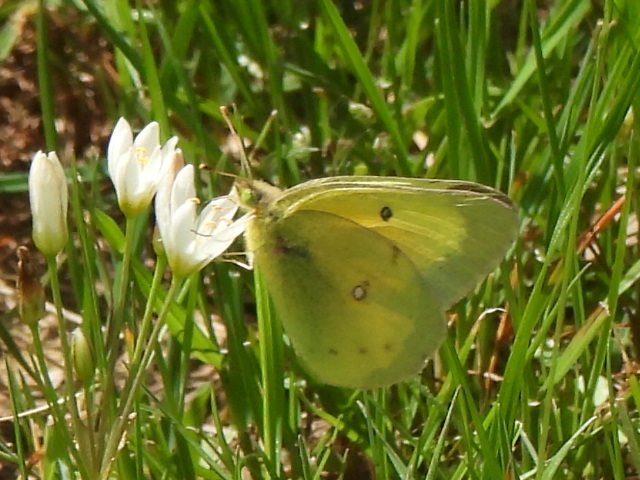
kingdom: Animalia
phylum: Arthropoda
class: Insecta
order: Lepidoptera
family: Pieridae
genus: Colias
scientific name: Colias eurytheme
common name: Alfalfa butterfly
